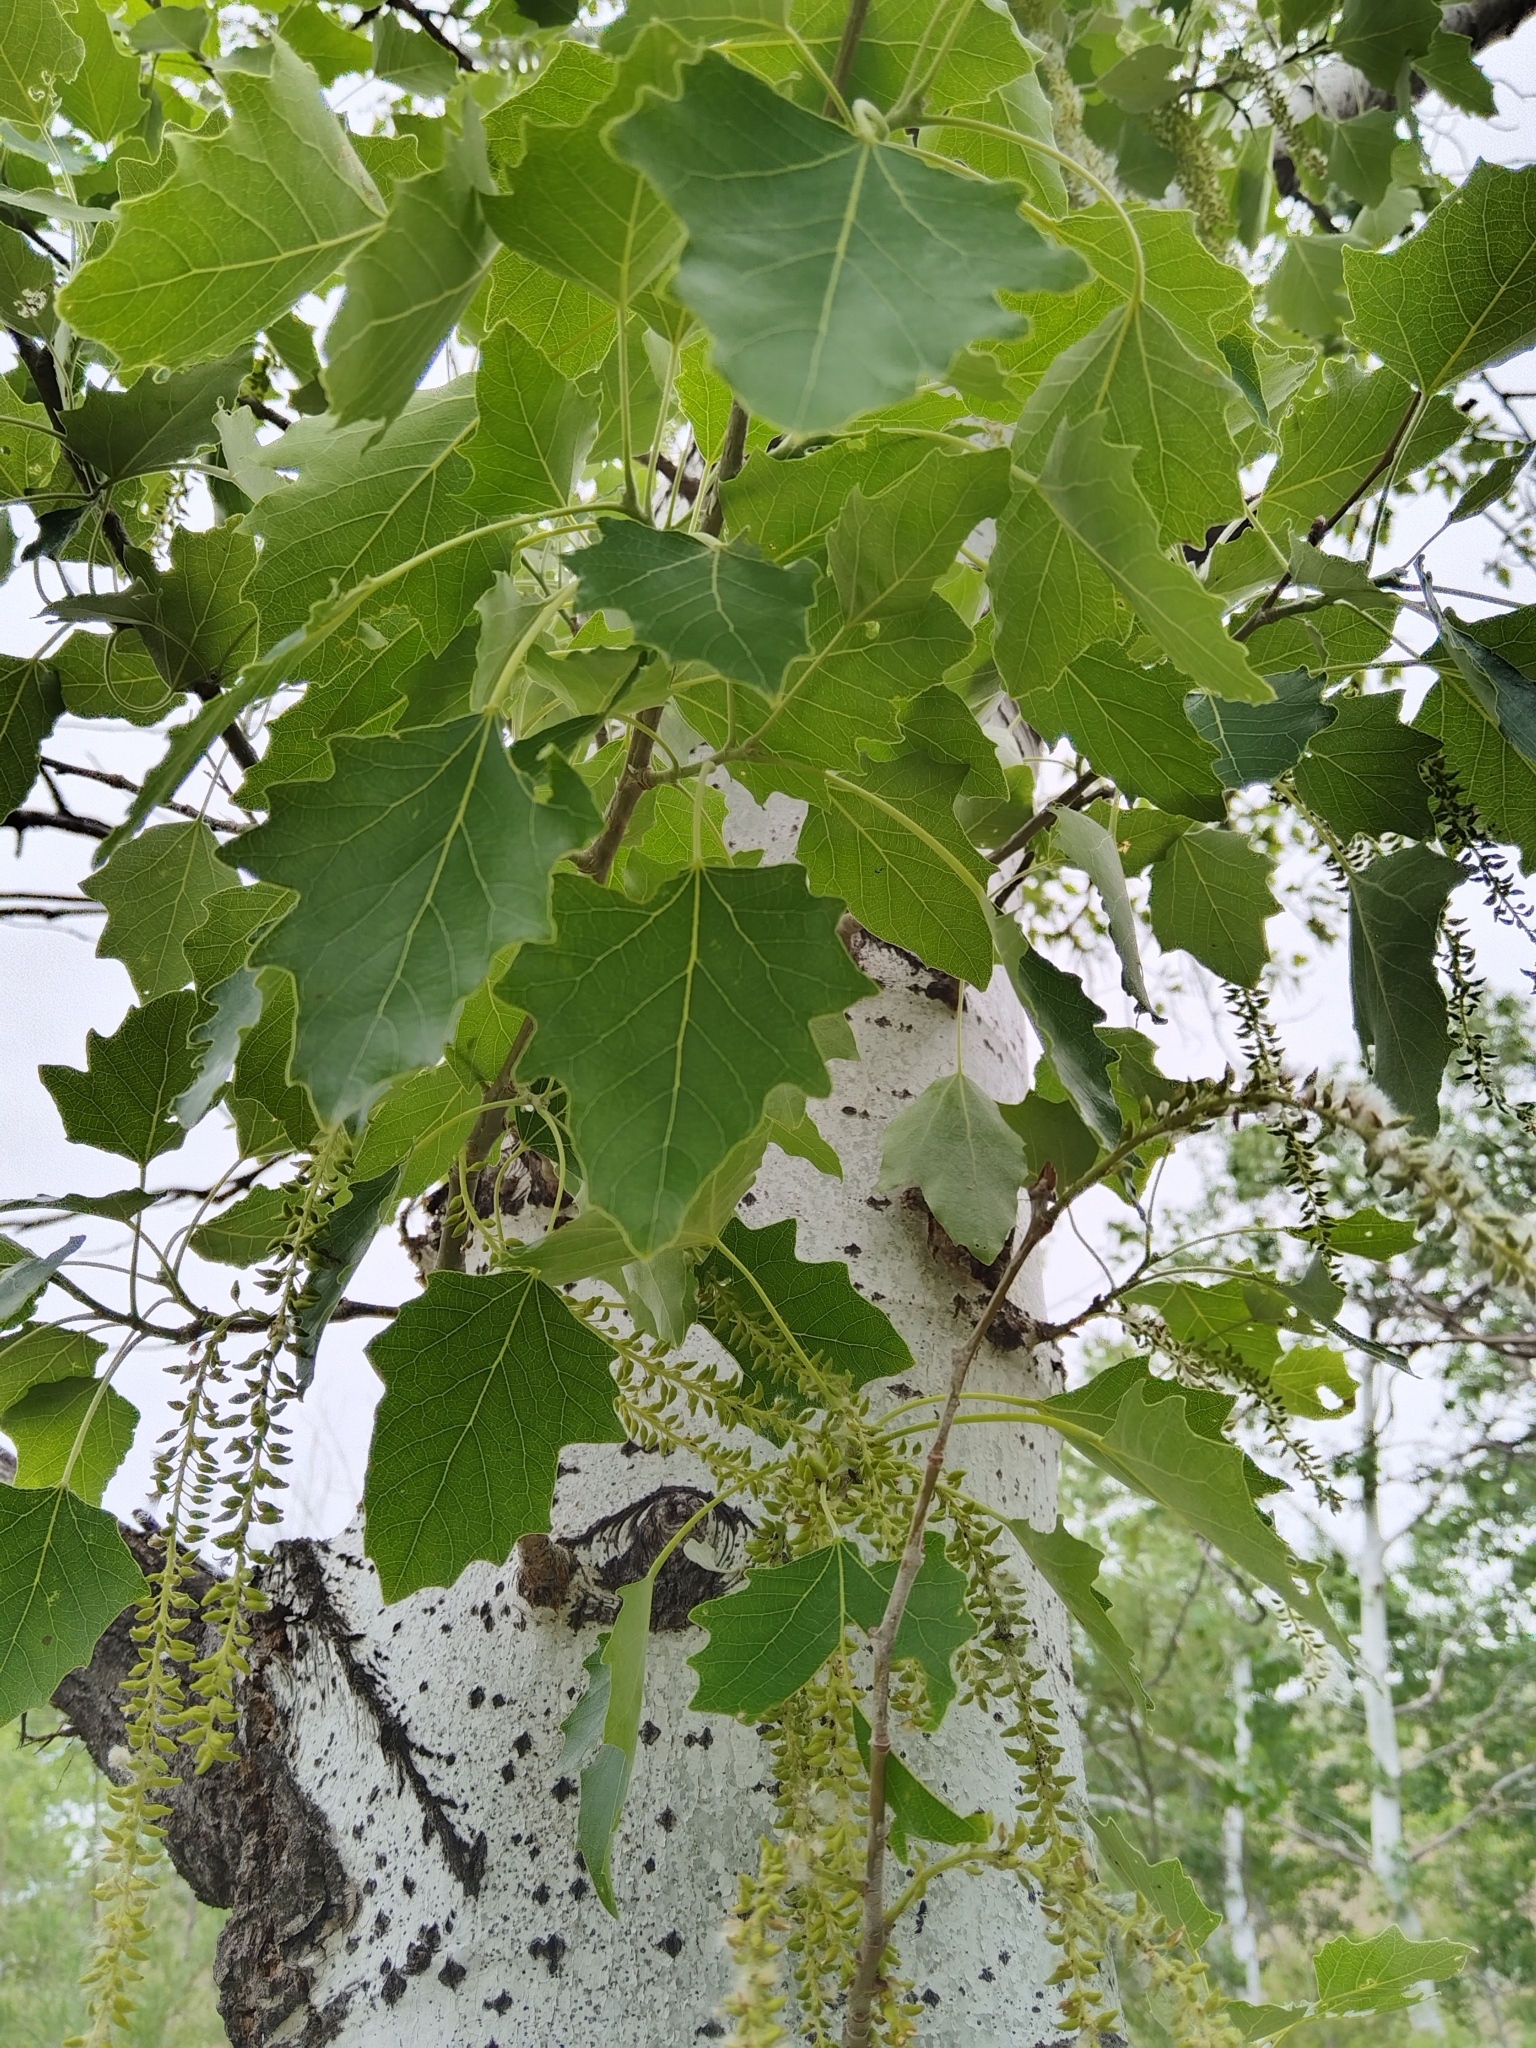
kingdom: Plantae
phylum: Tracheophyta
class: Magnoliopsida
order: Malpighiales
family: Salicaceae
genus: Populus
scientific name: Populus tremula
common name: European aspen
